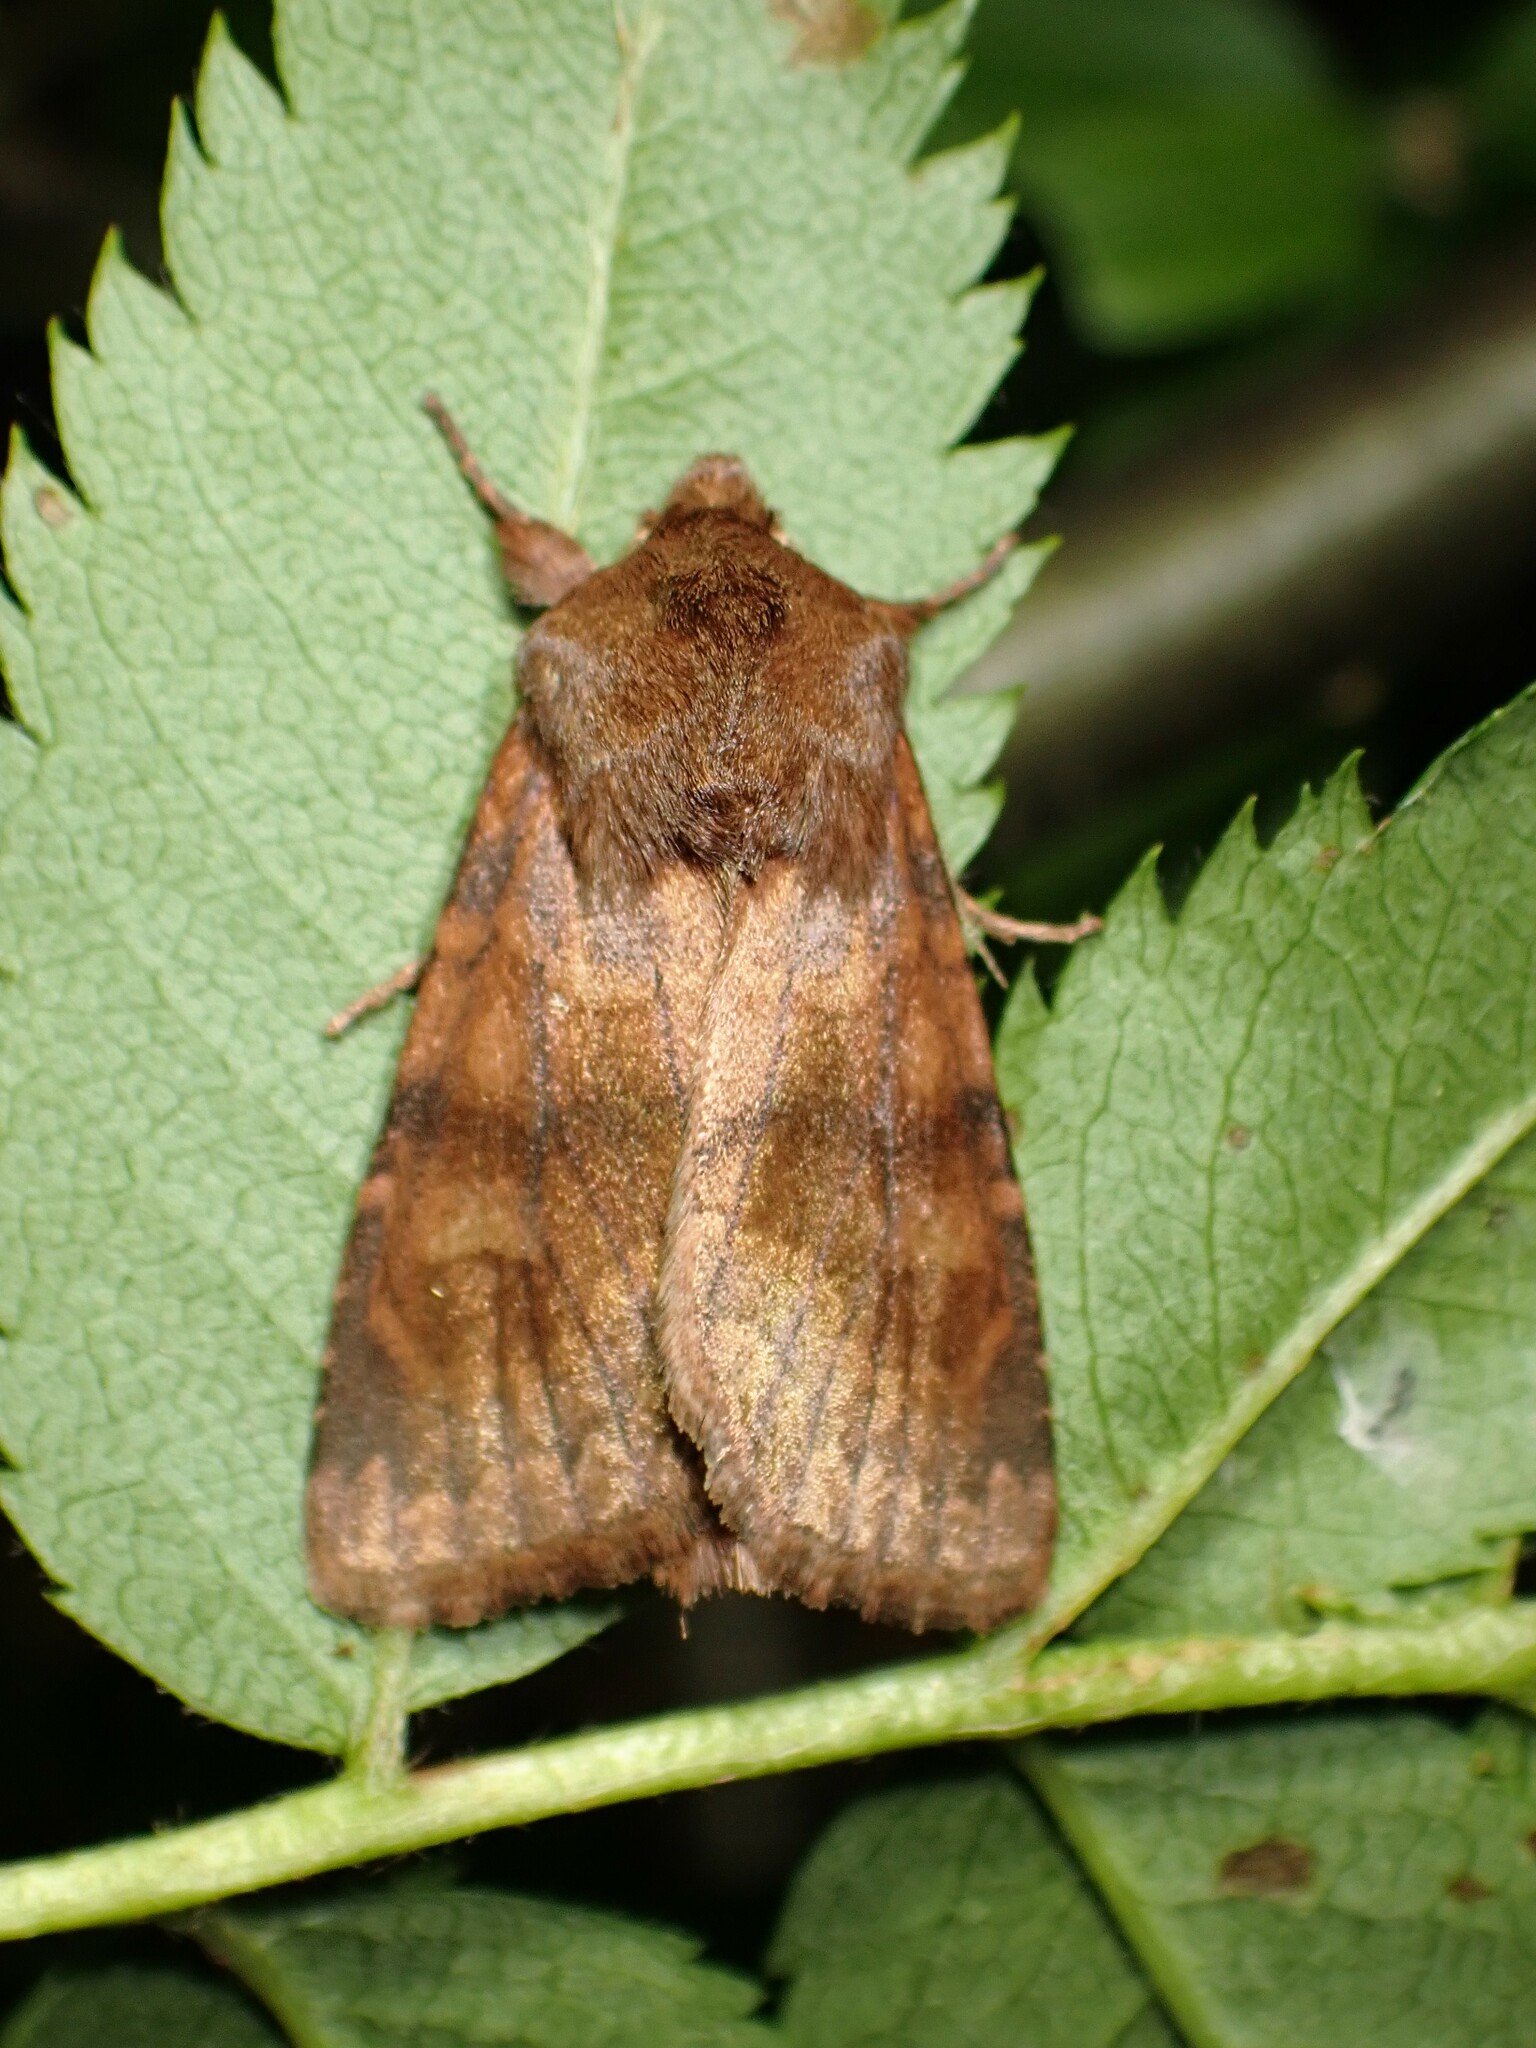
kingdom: Animalia
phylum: Arthropoda
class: Insecta
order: Lepidoptera
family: Noctuidae
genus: Nephelodes
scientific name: Nephelodes minians
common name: Bronzed cutworm
